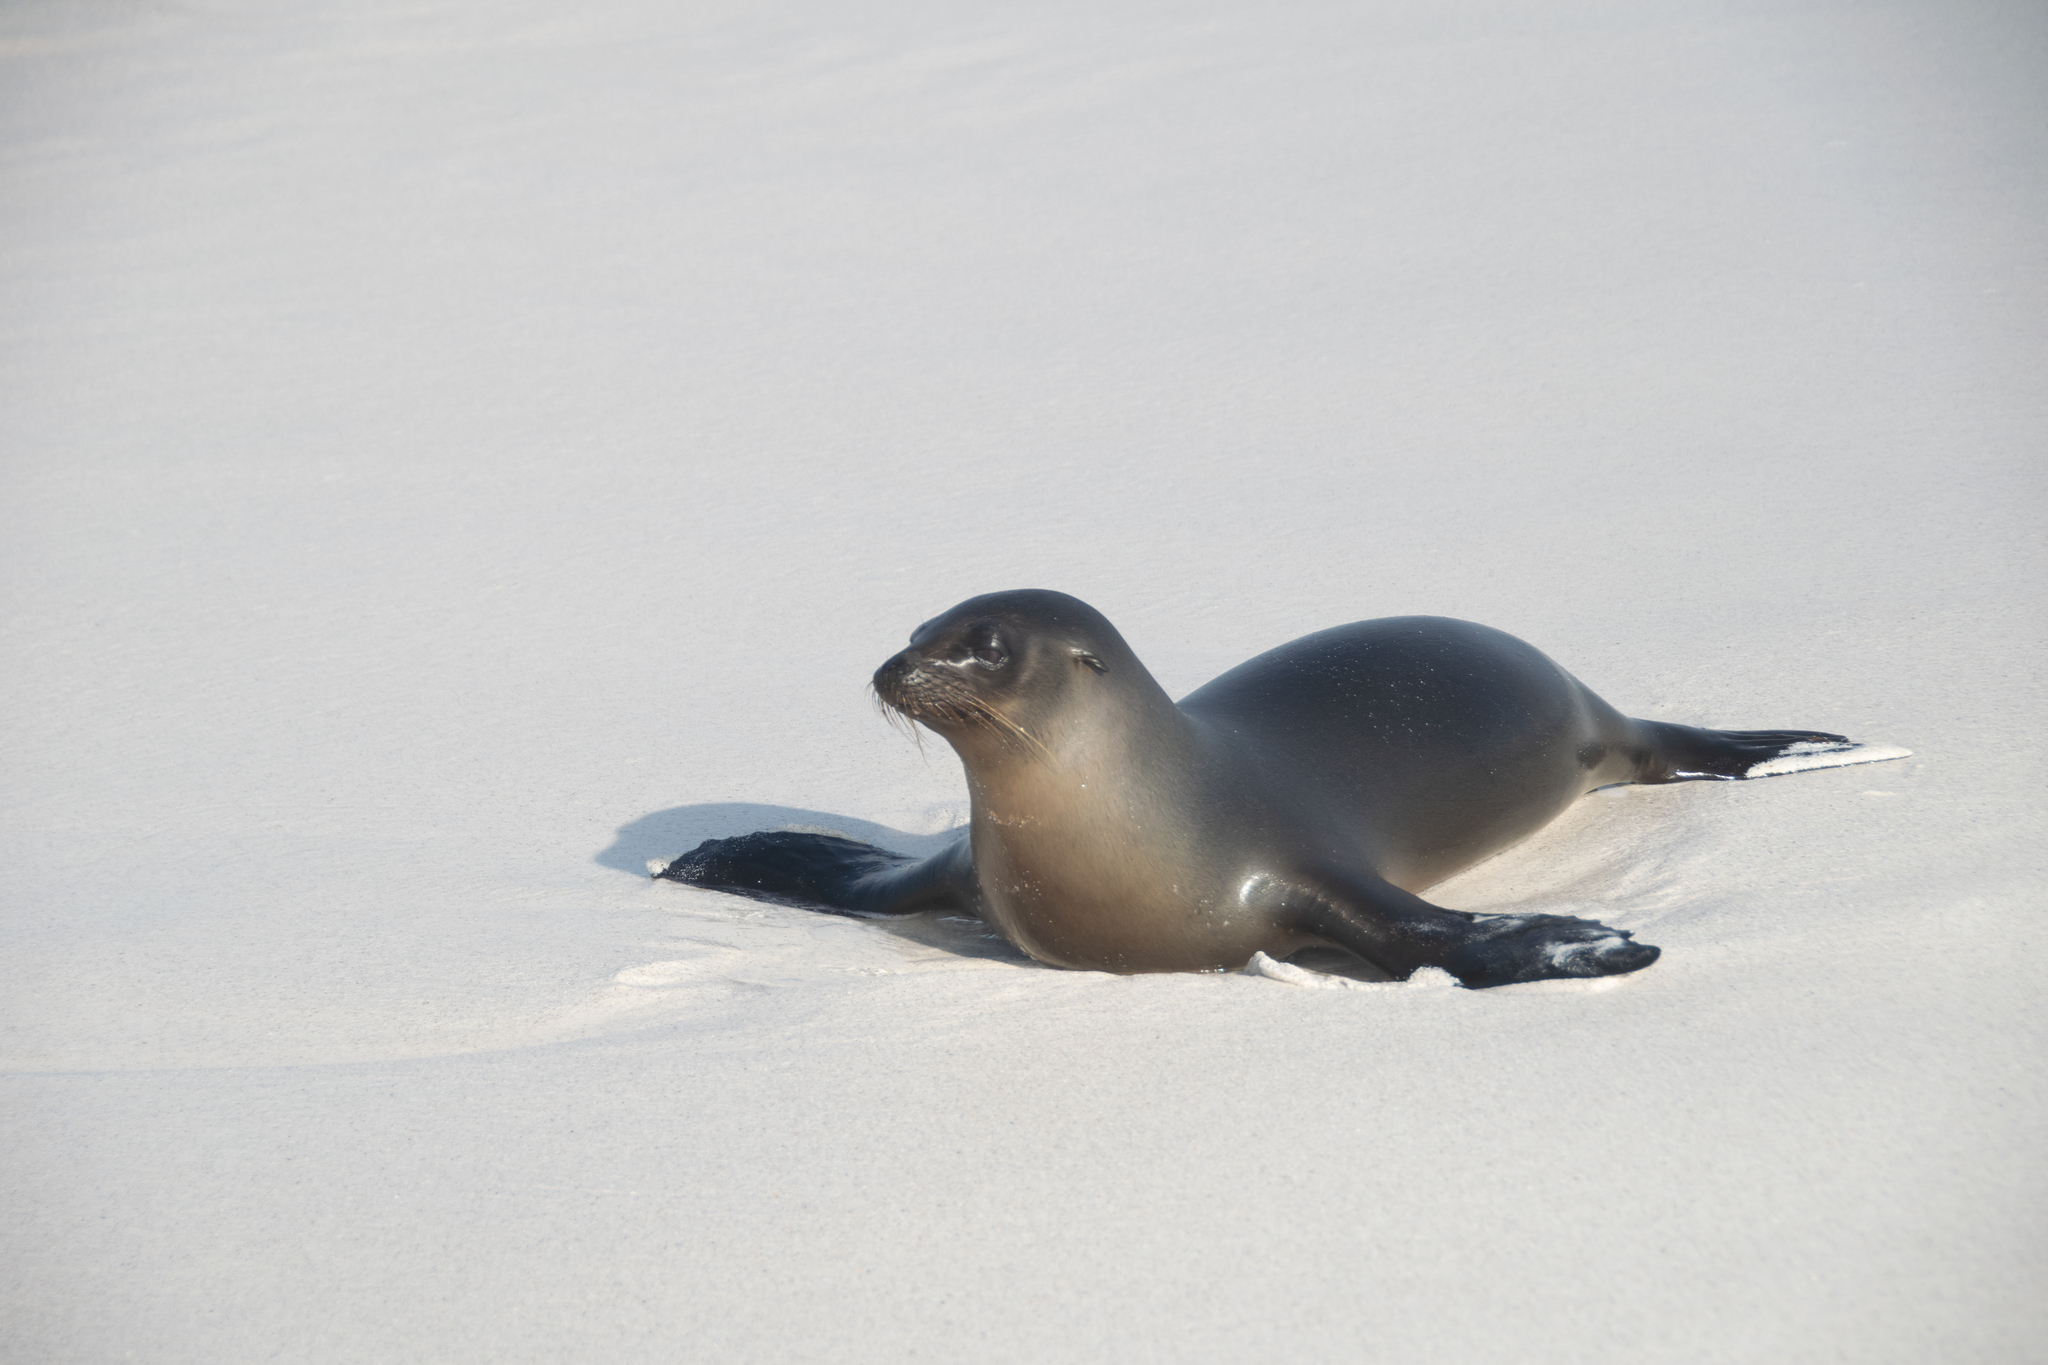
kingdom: Animalia
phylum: Chordata
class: Mammalia
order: Carnivora
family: Otariidae
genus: Zalophus
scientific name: Zalophus wollebaeki
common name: Galapagos sea lion
